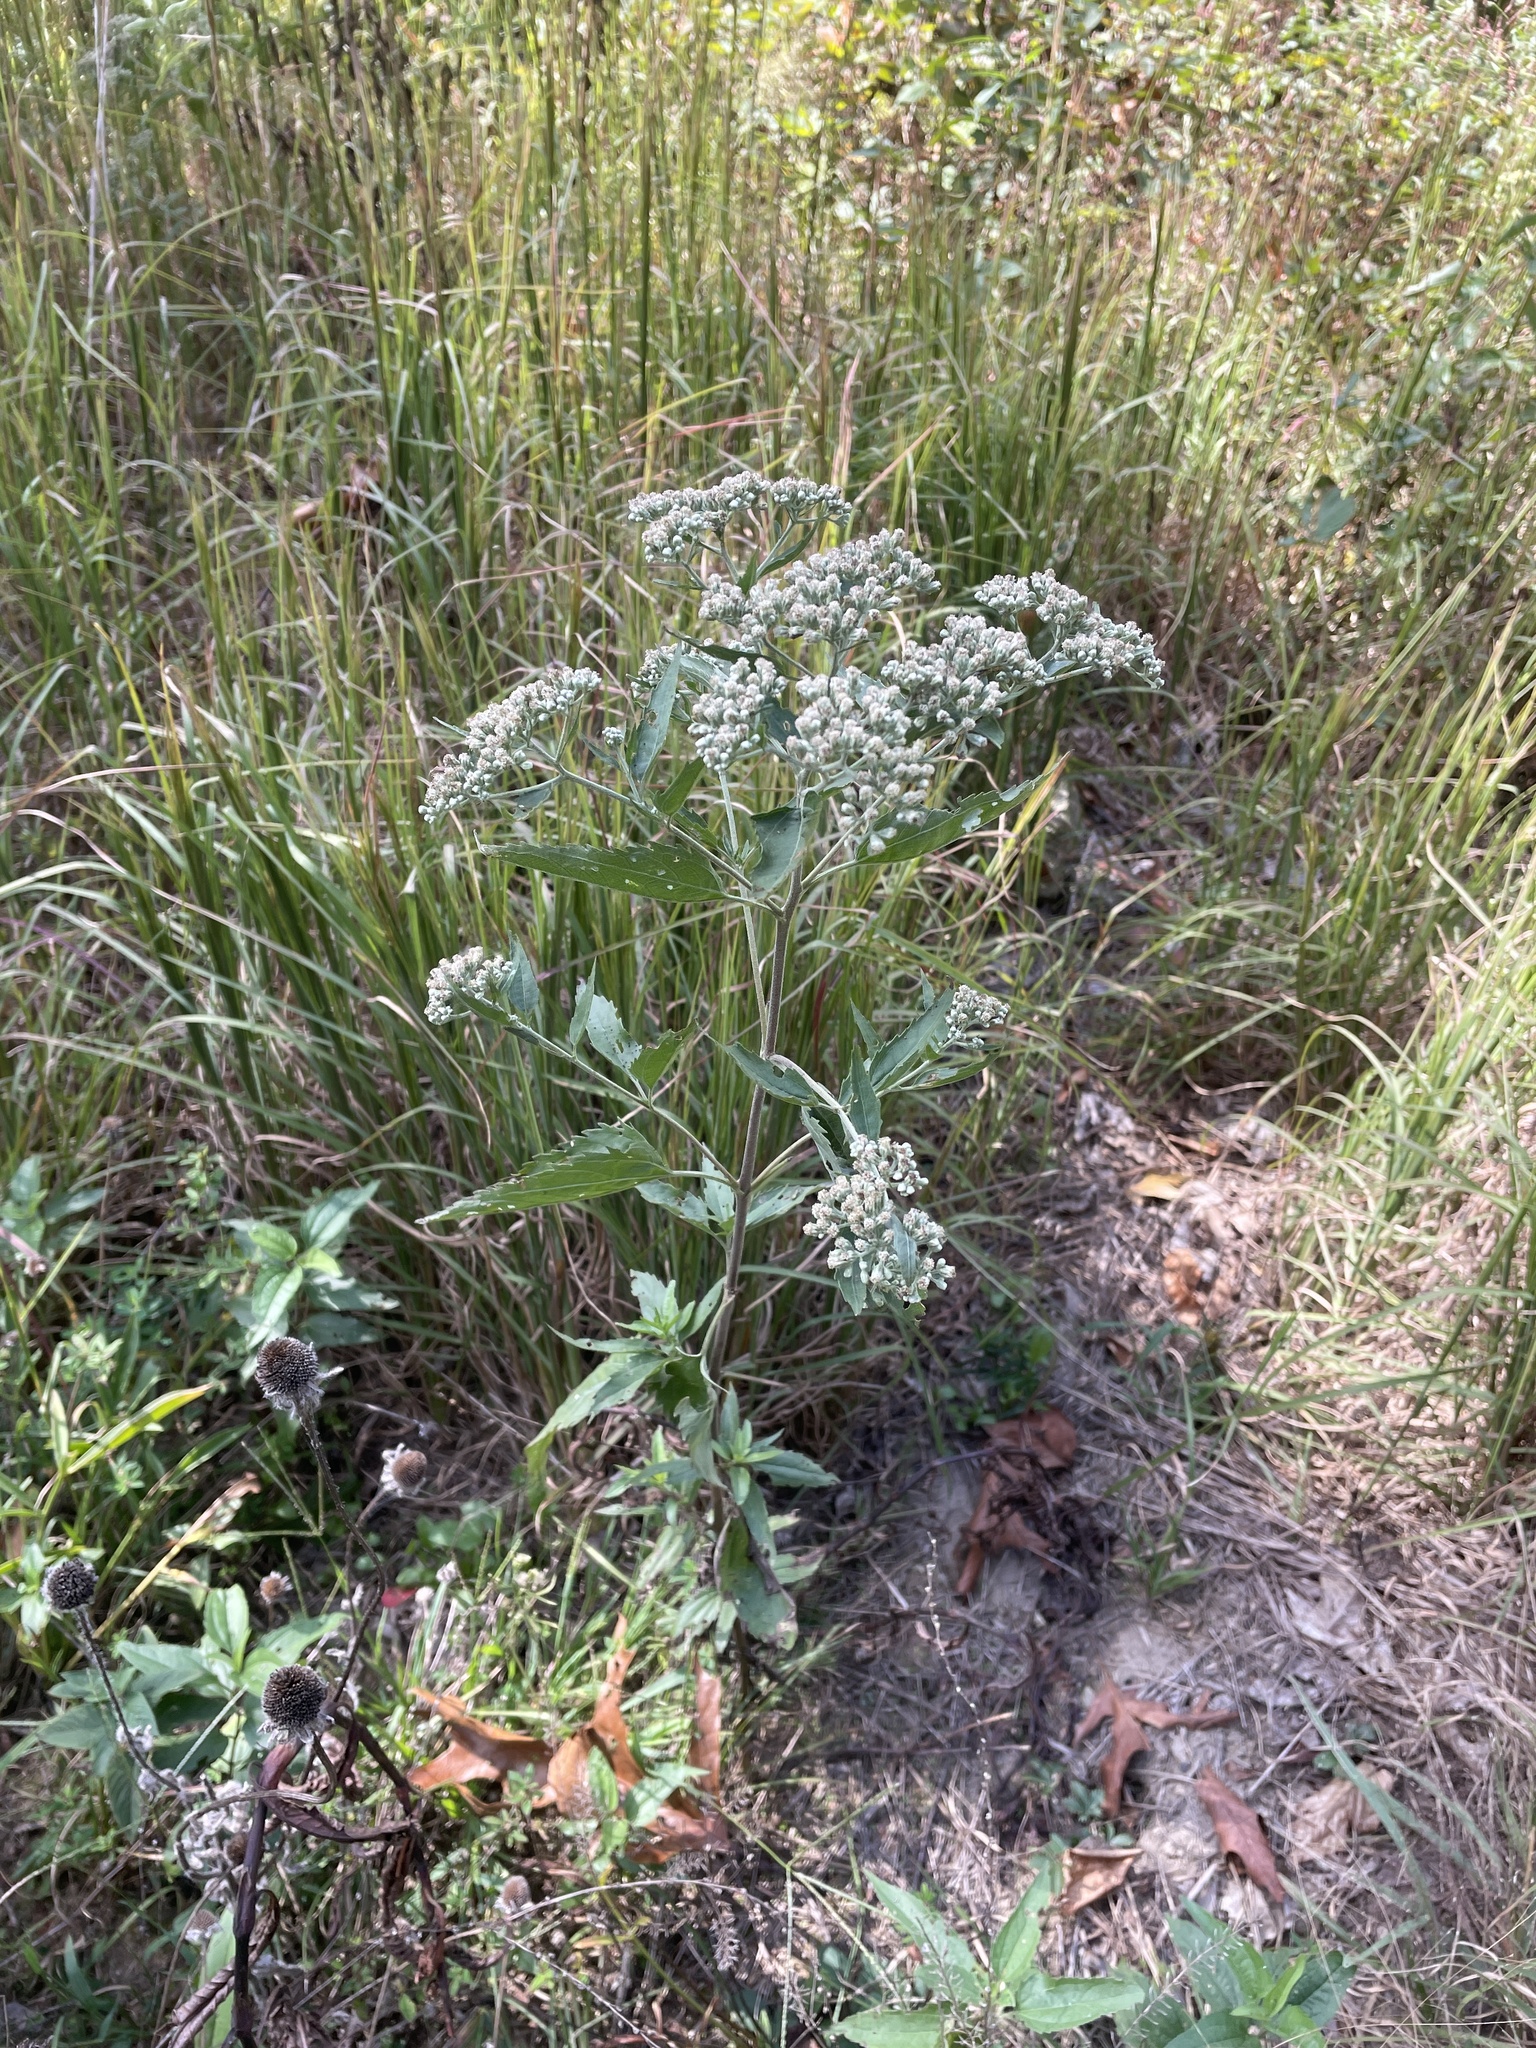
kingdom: Plantae
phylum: Tracheophyta
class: Magnoliopsida
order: Asterales
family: Asteraceae
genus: Eupatorium
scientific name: Eupatorium serotinum
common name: Late boneset
